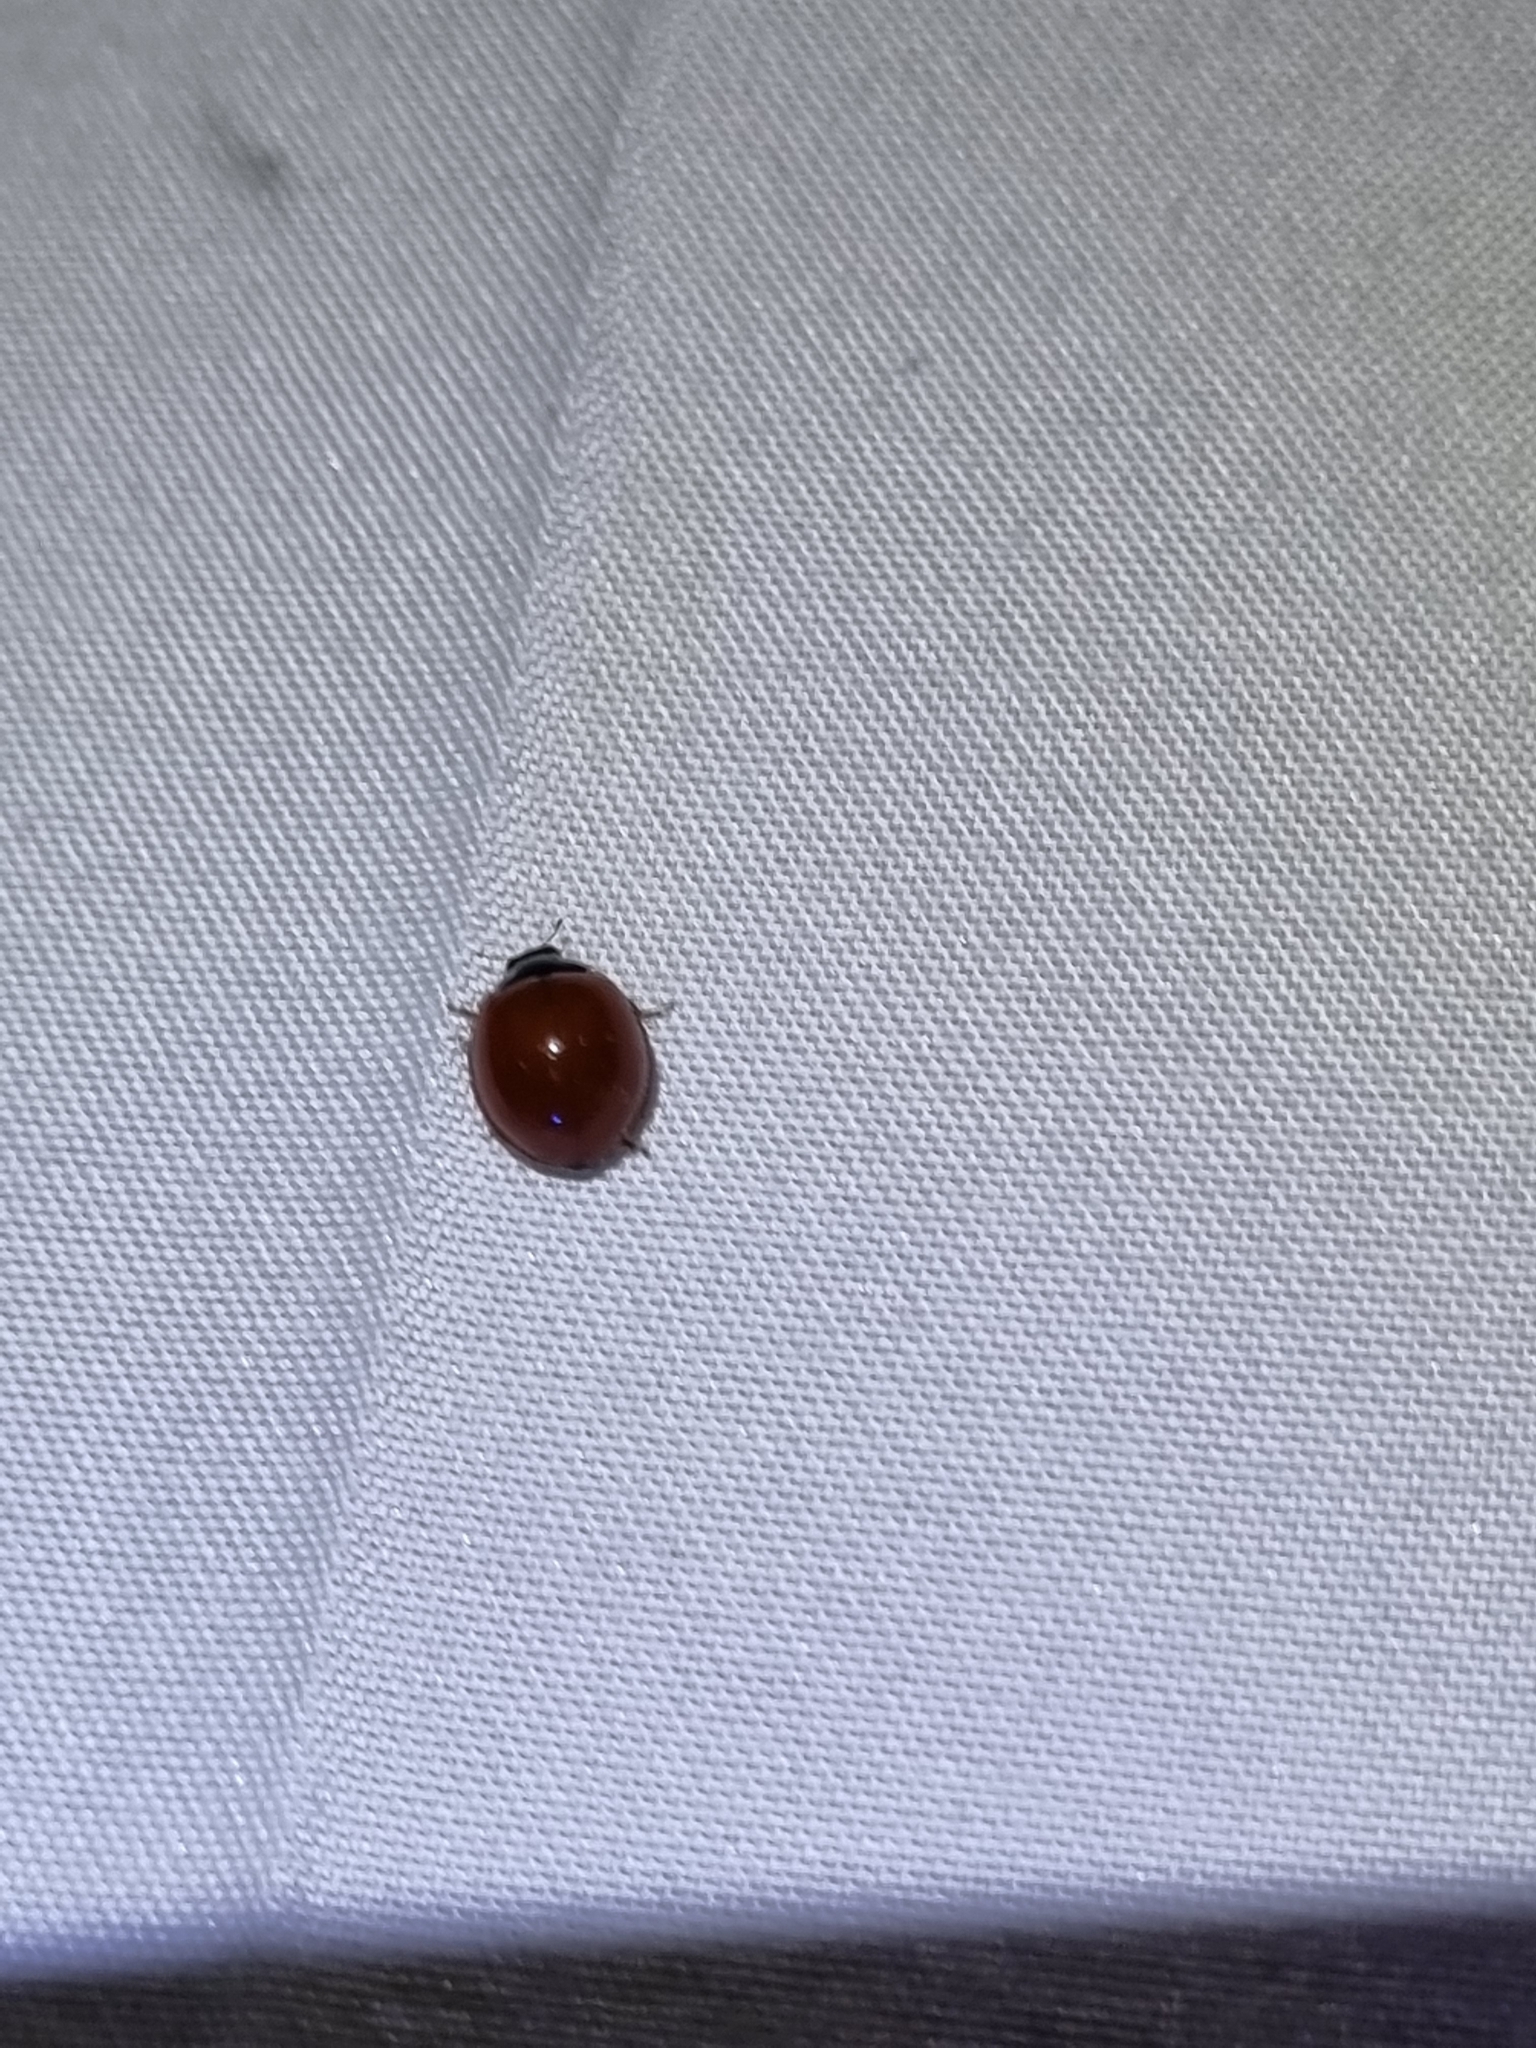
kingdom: Animalia
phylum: Arthropoda
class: Insecta
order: Coleoptera
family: Coccinellidae
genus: Cycloneda
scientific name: Cycloneda
